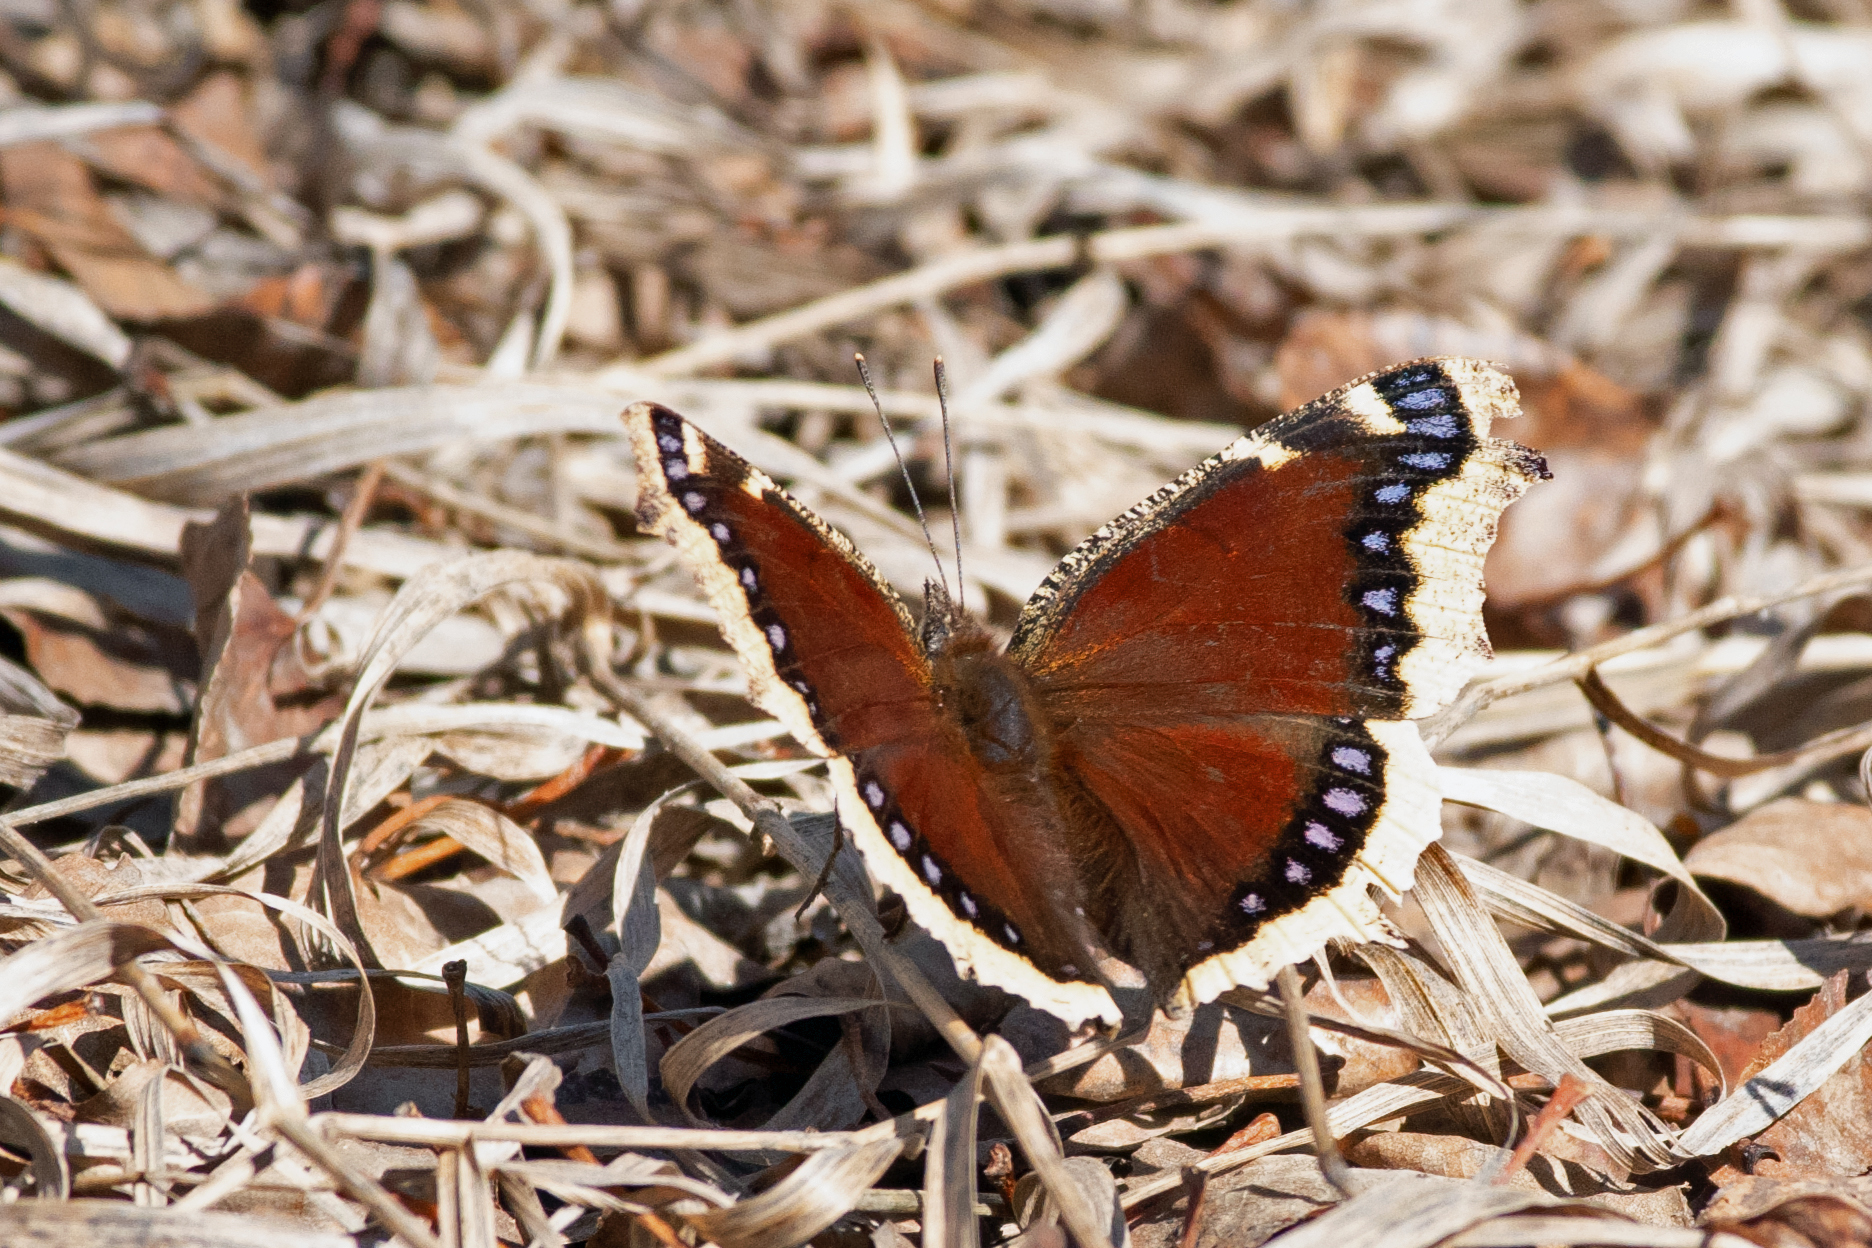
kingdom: Animalia
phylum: Arthropoda
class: Insecta
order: Lepidoptera
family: Nymphalidae
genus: Nymphalis
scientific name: Nymphalis antiopa
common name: Camberwell beauty
